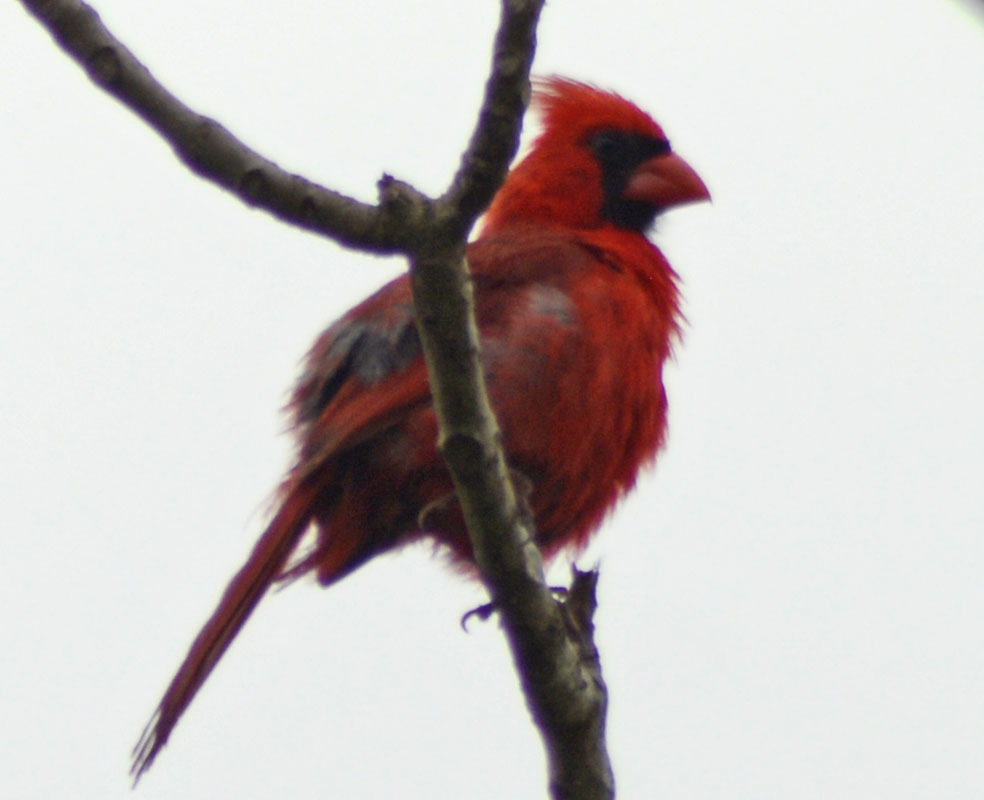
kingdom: Animalia
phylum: Chordata
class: Aves
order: Passeriformes
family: Cardinalidae
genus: Cardinalis
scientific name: Cardinalis cardinalis
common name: Northern cardinal
